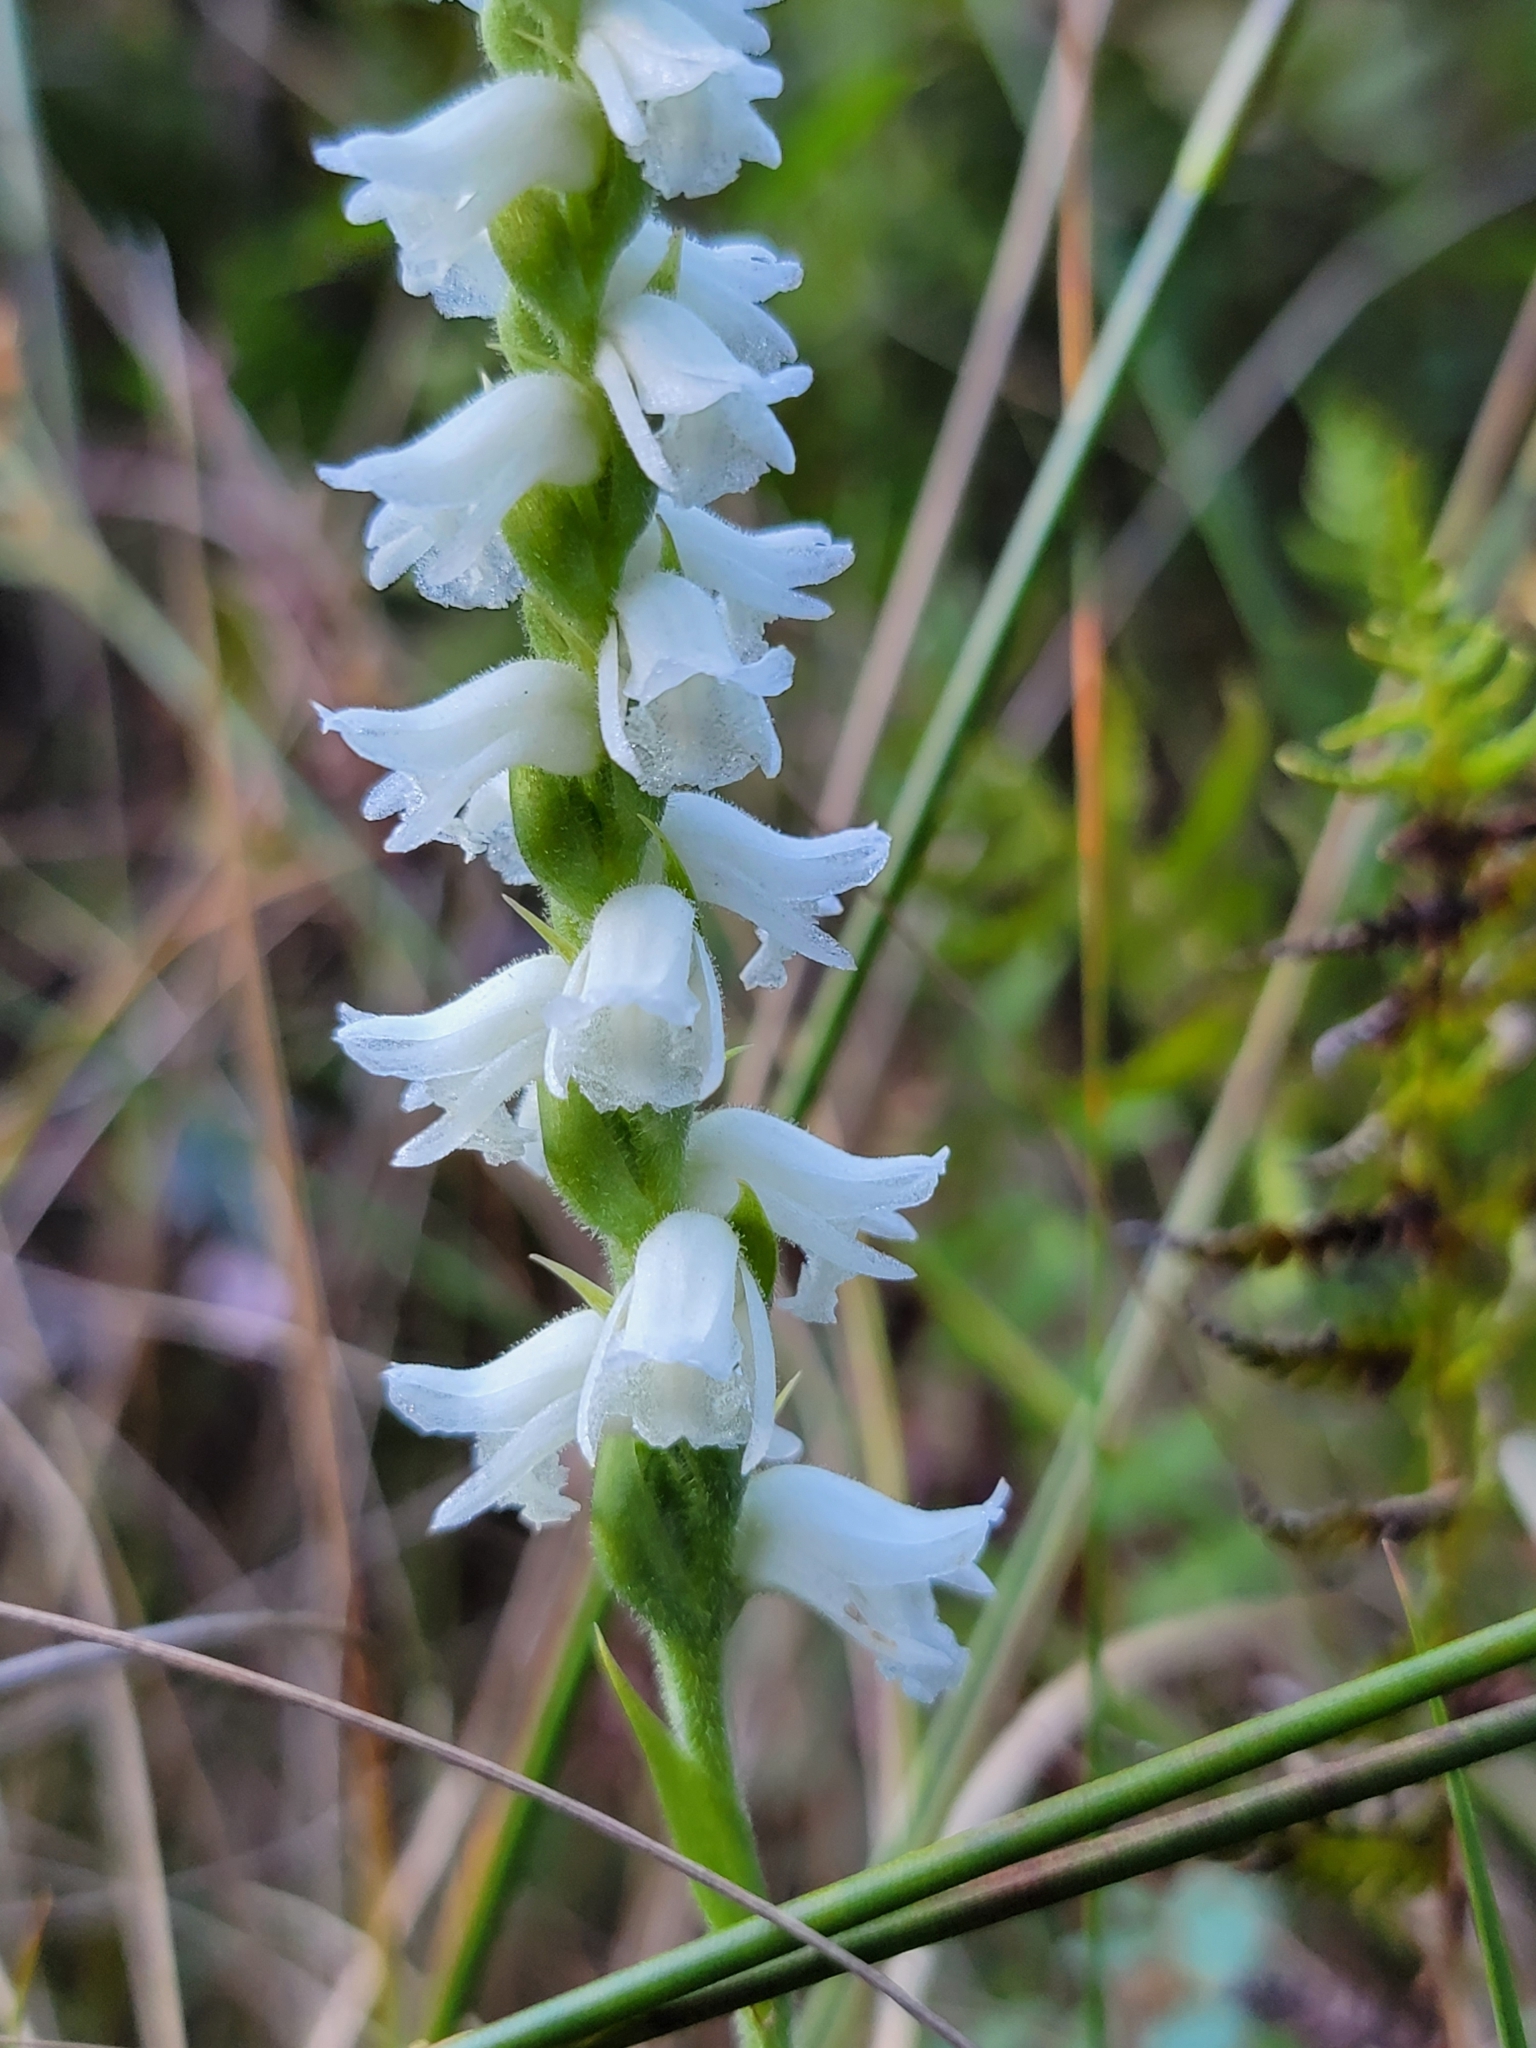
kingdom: Plantae
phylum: Tracheophyta
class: Liliopsida
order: Asparagales
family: Orchidaceae
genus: Spiranthes
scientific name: Spiranthes arcisepala
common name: Appalachian ladies'-tresses
